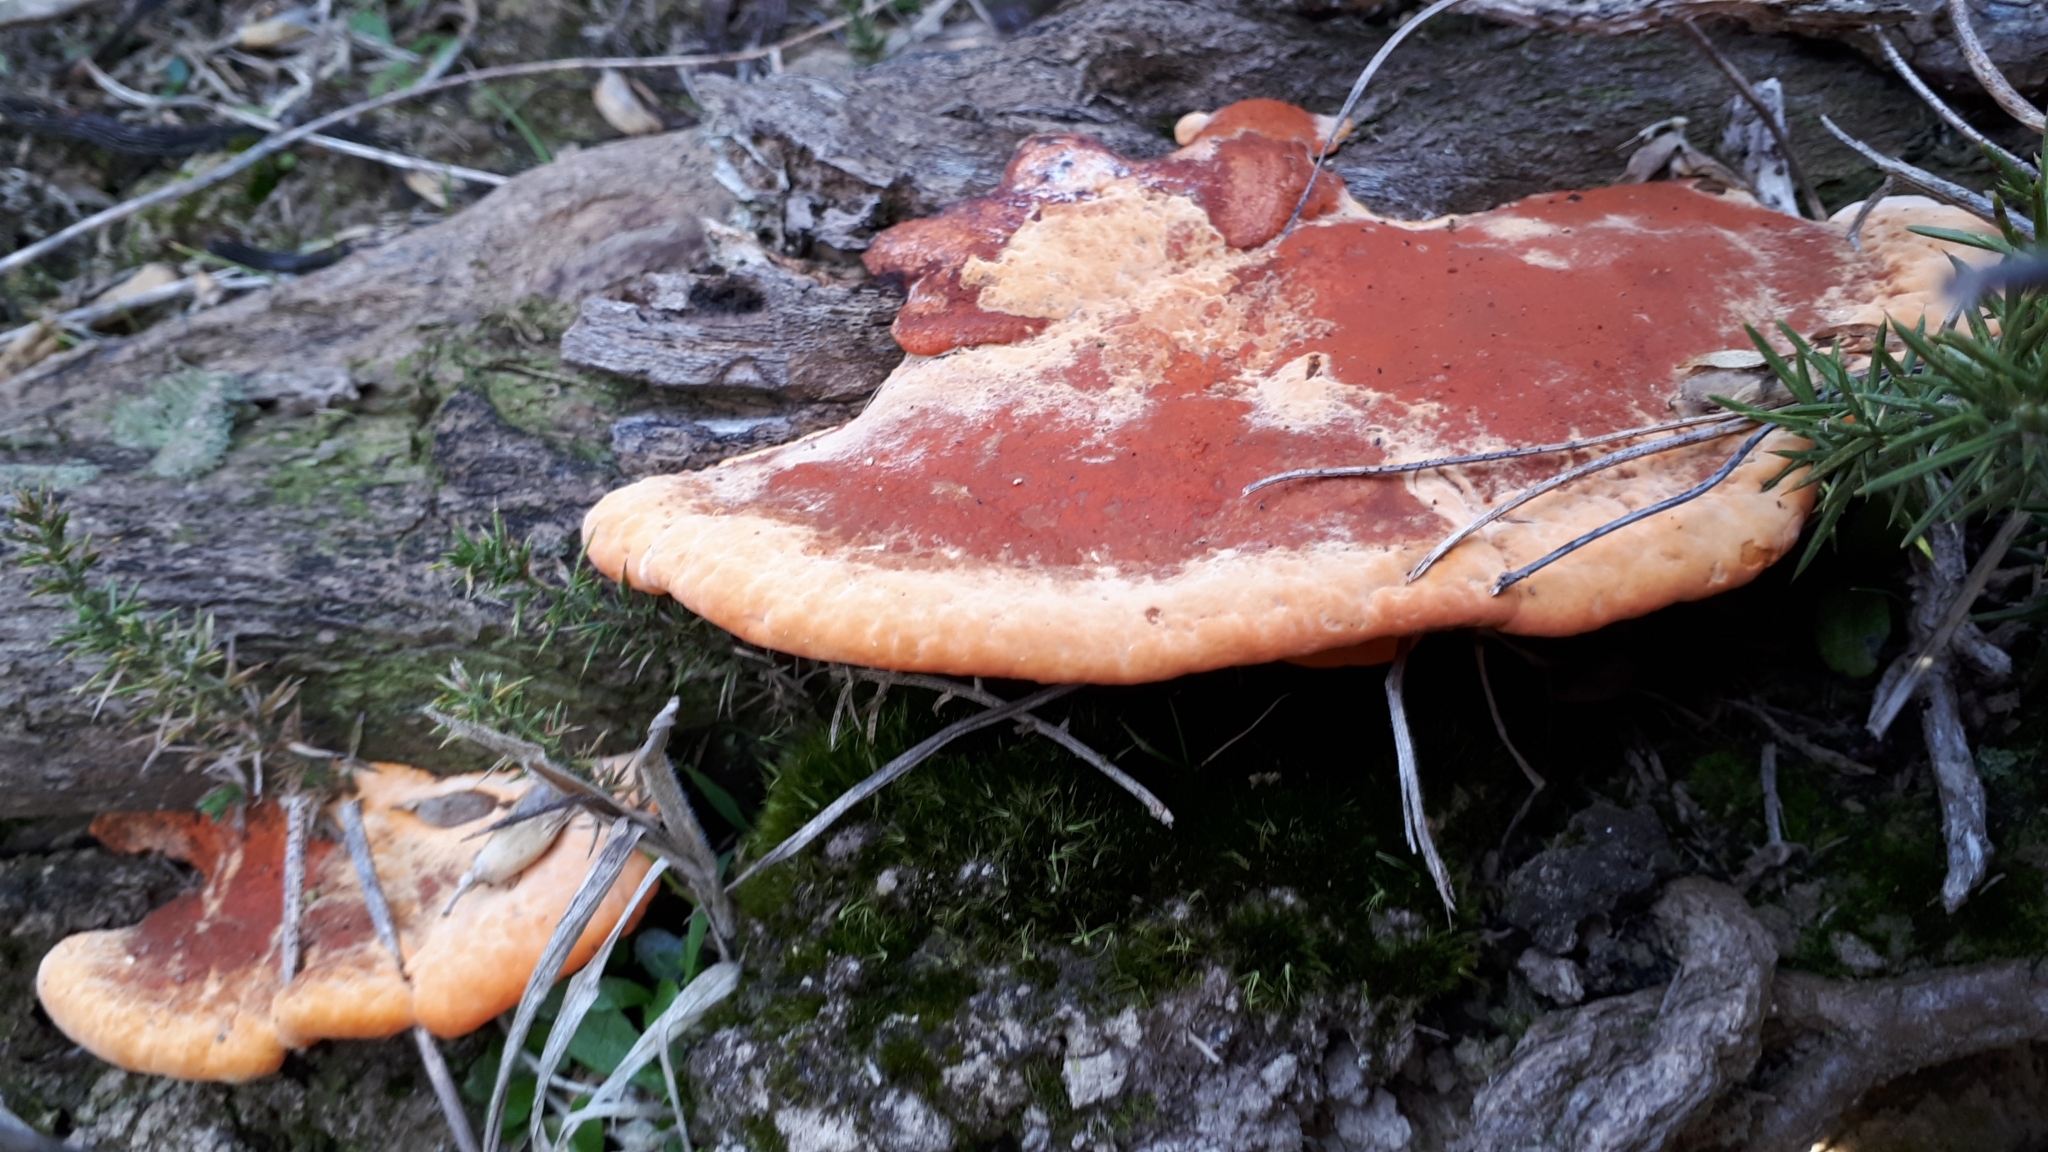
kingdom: Fungi
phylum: Basidiomycota
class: Agaricomycetes
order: Polyporales
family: Polyporaceae
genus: Trametes
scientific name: Trametes coccinea
